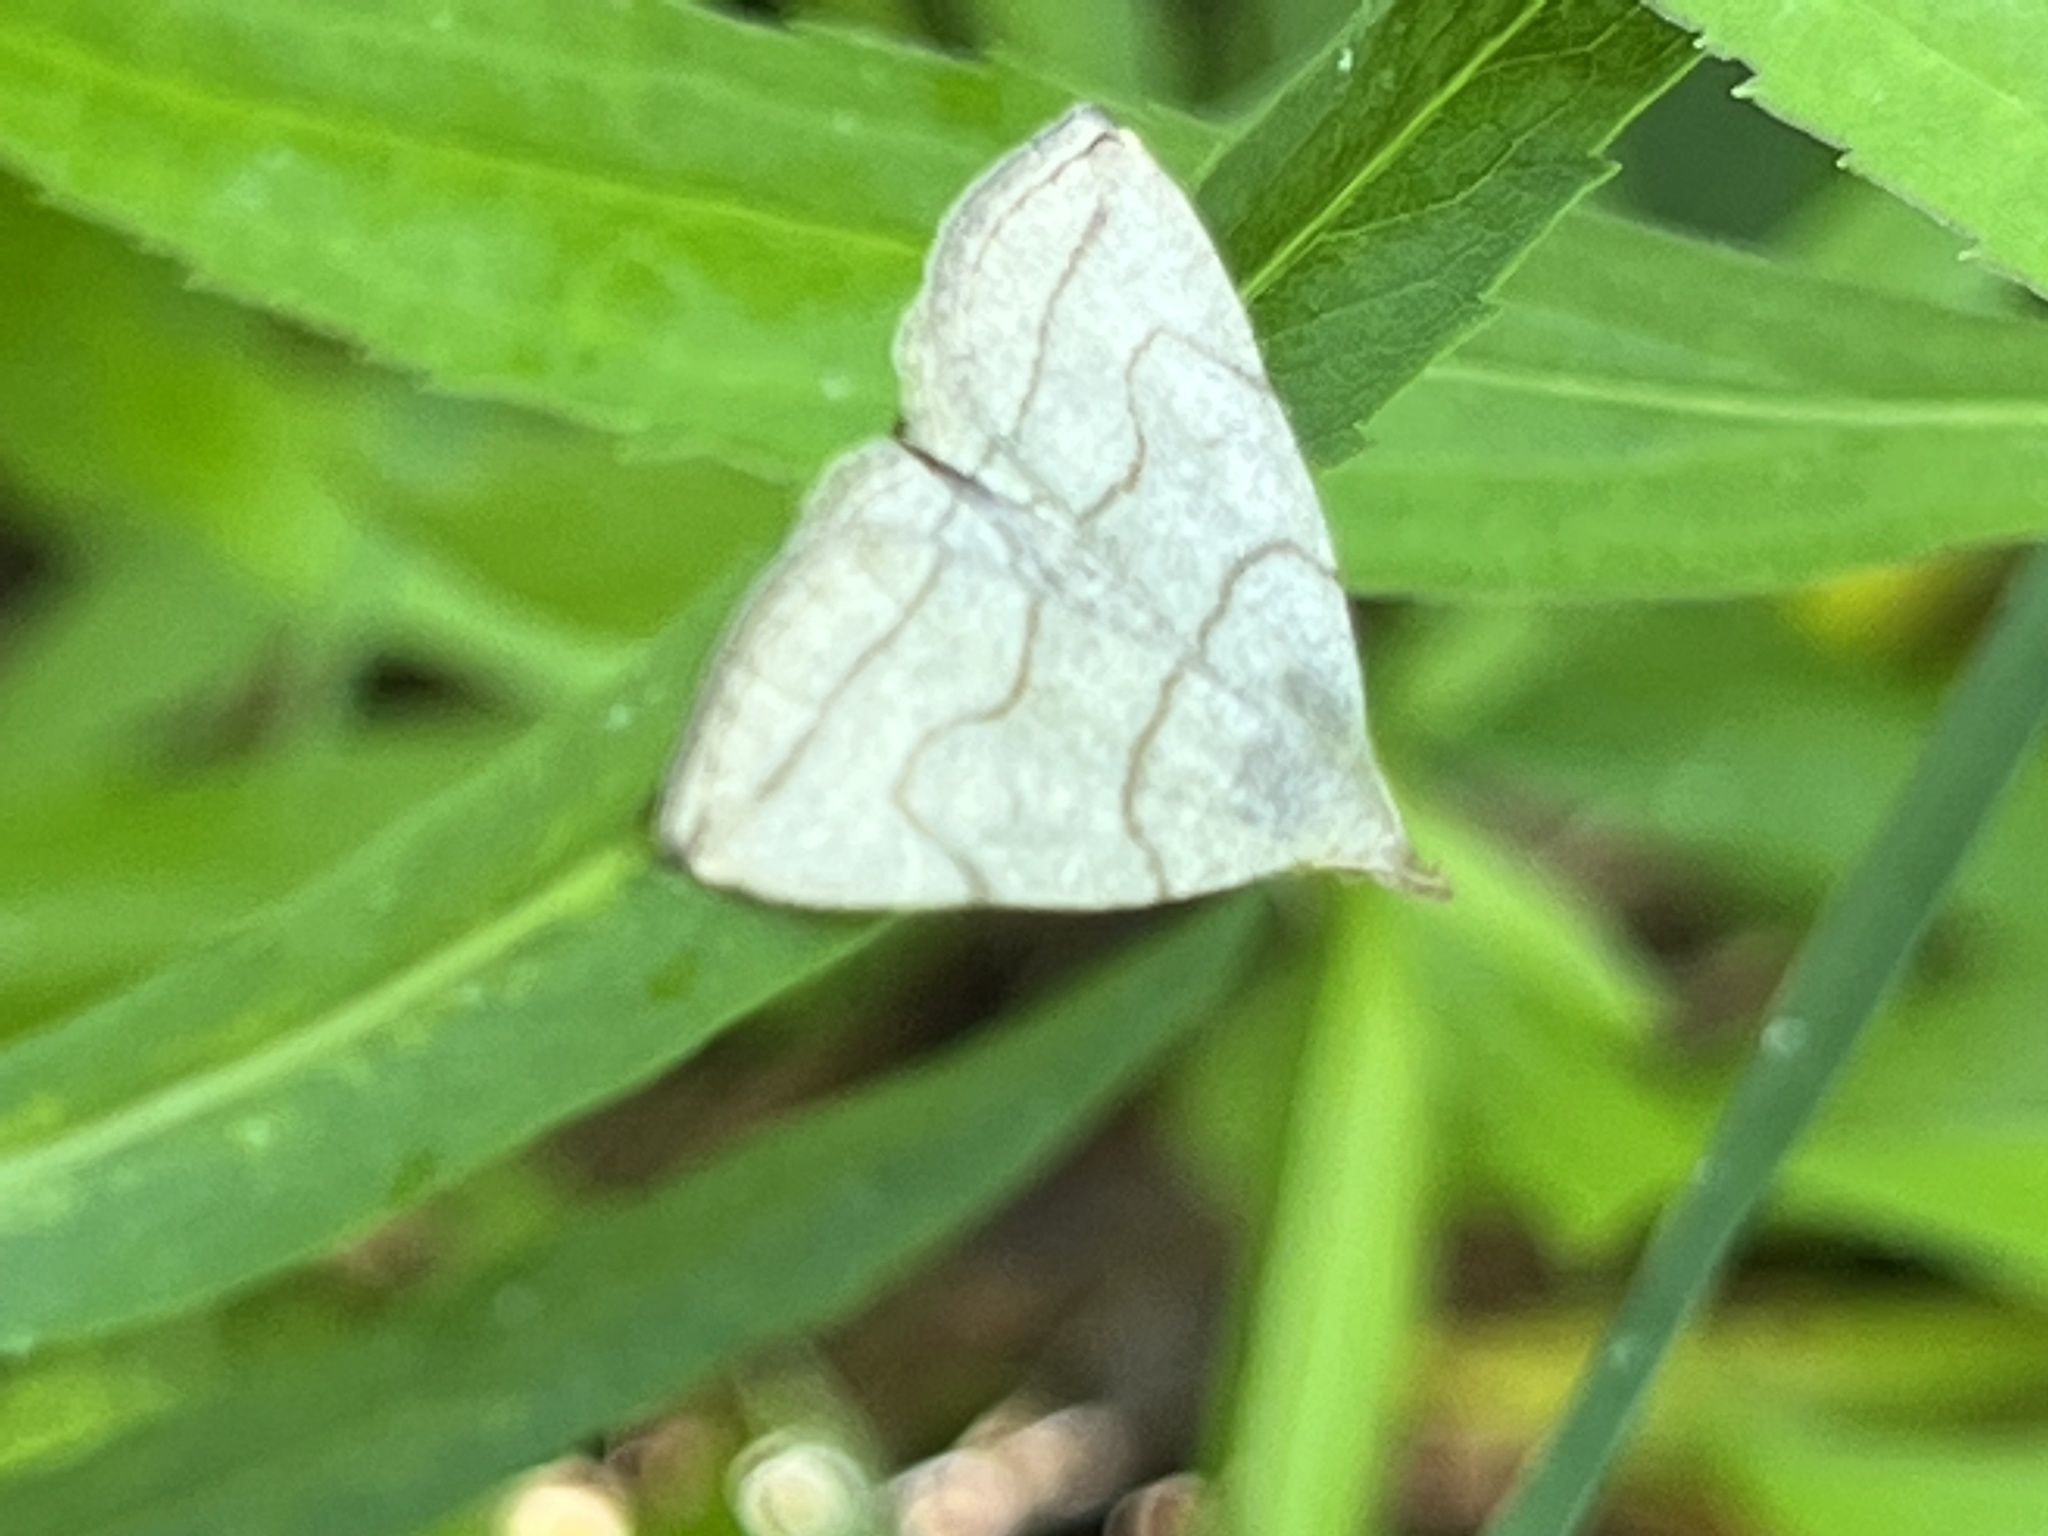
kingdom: Animalia
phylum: Arthropoda
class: Insecta
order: Lepidoptera
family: Erebidae
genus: Zanclognatha
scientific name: Zanclognatha pedipilalis
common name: Grayish fan-foot
